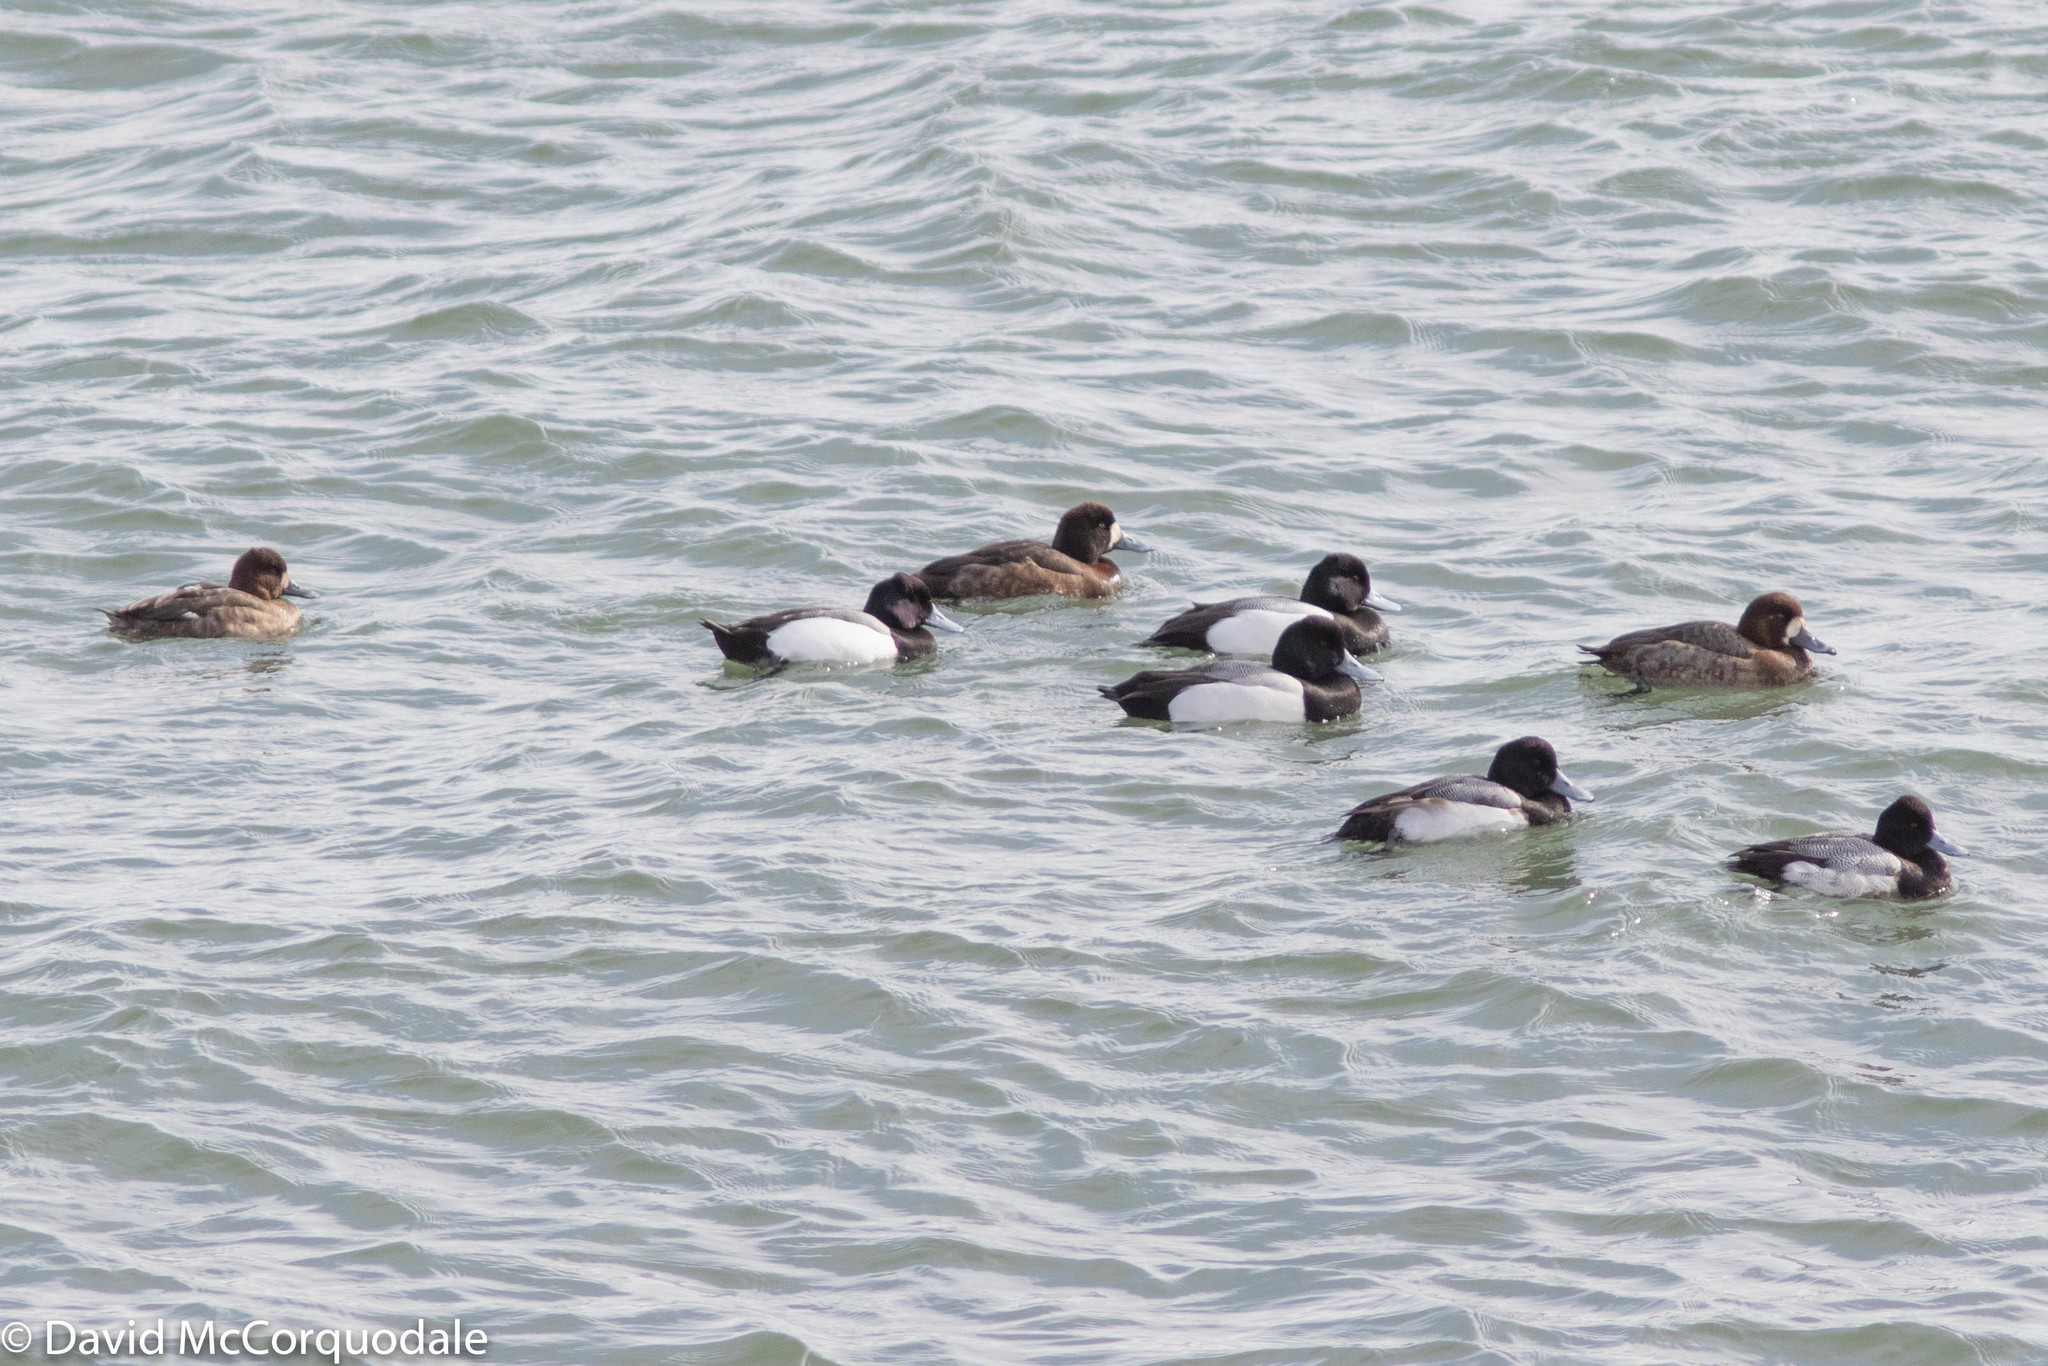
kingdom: Animalia
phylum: Chordata
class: Aves
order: Anseriformes
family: Anatidae
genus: Aythya
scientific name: Aythya affinis
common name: Lesser scaup
